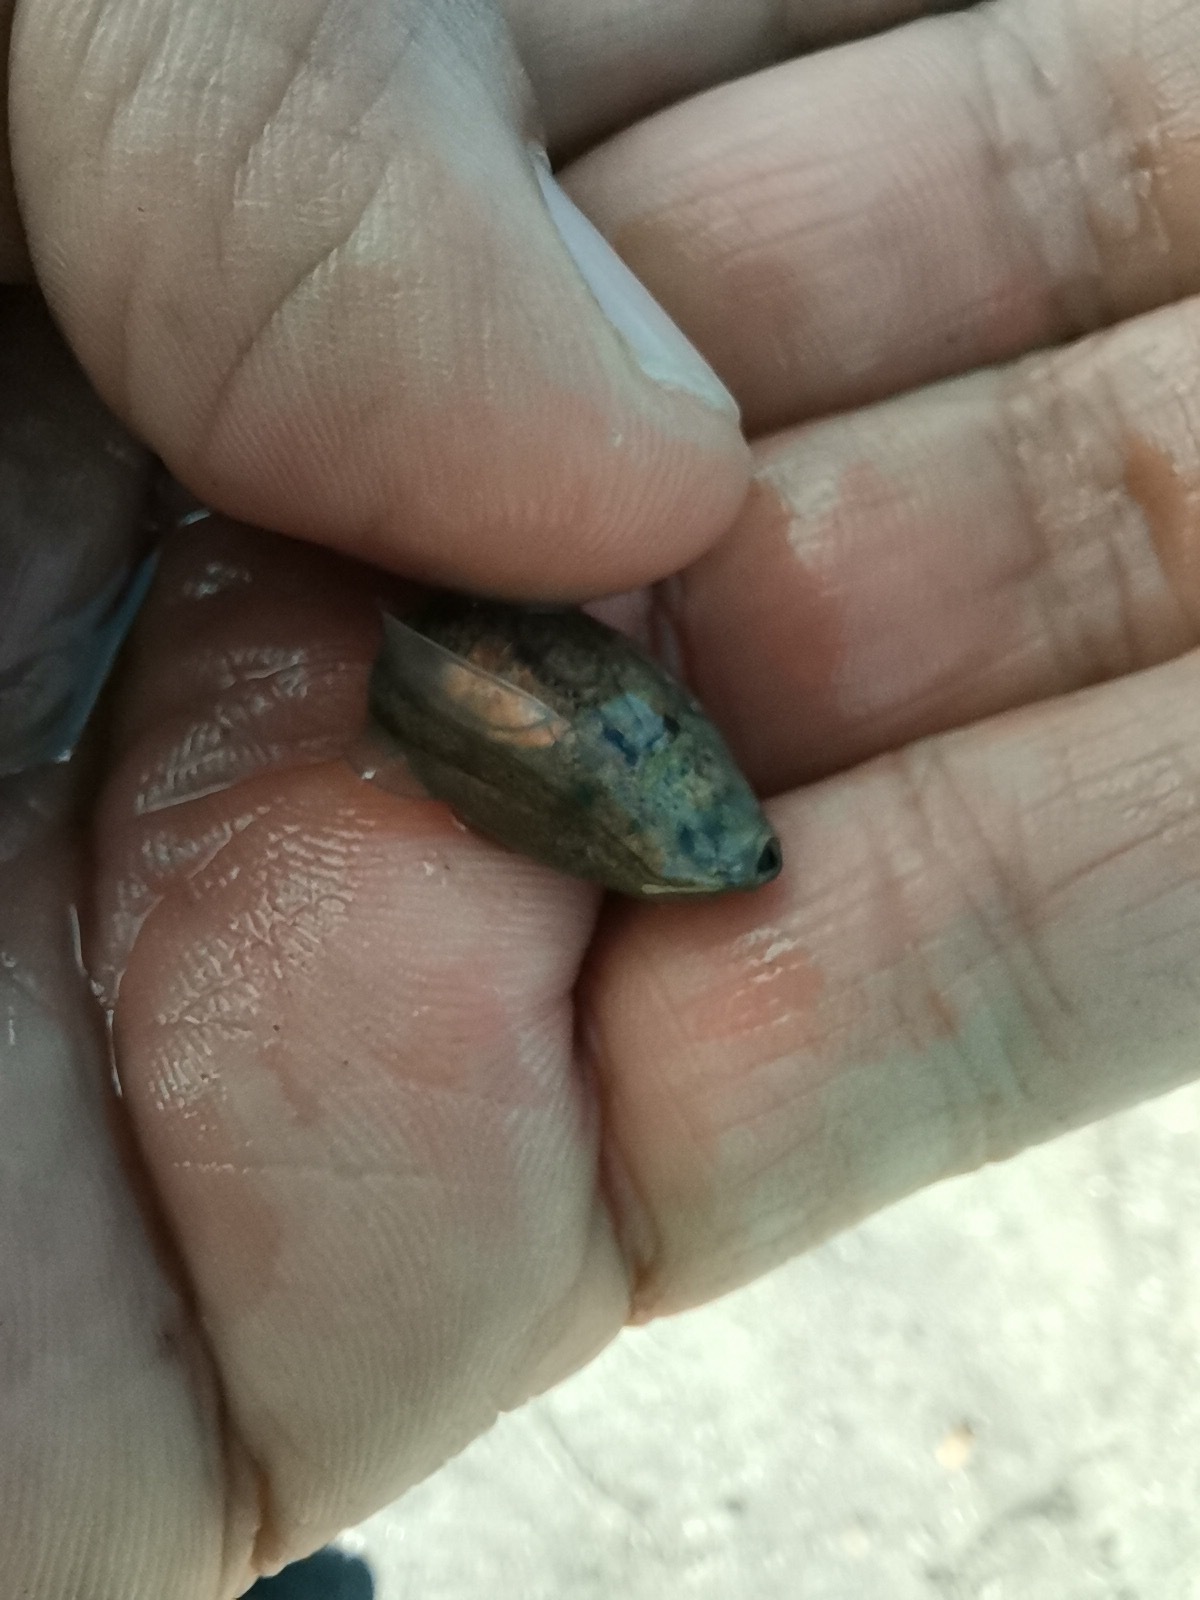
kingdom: Animalia
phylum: Chordata
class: Amphibia
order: Anura
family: Scaphiopodidae
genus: Spea
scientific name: Spea multiplicata
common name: Mexican spadefoot
